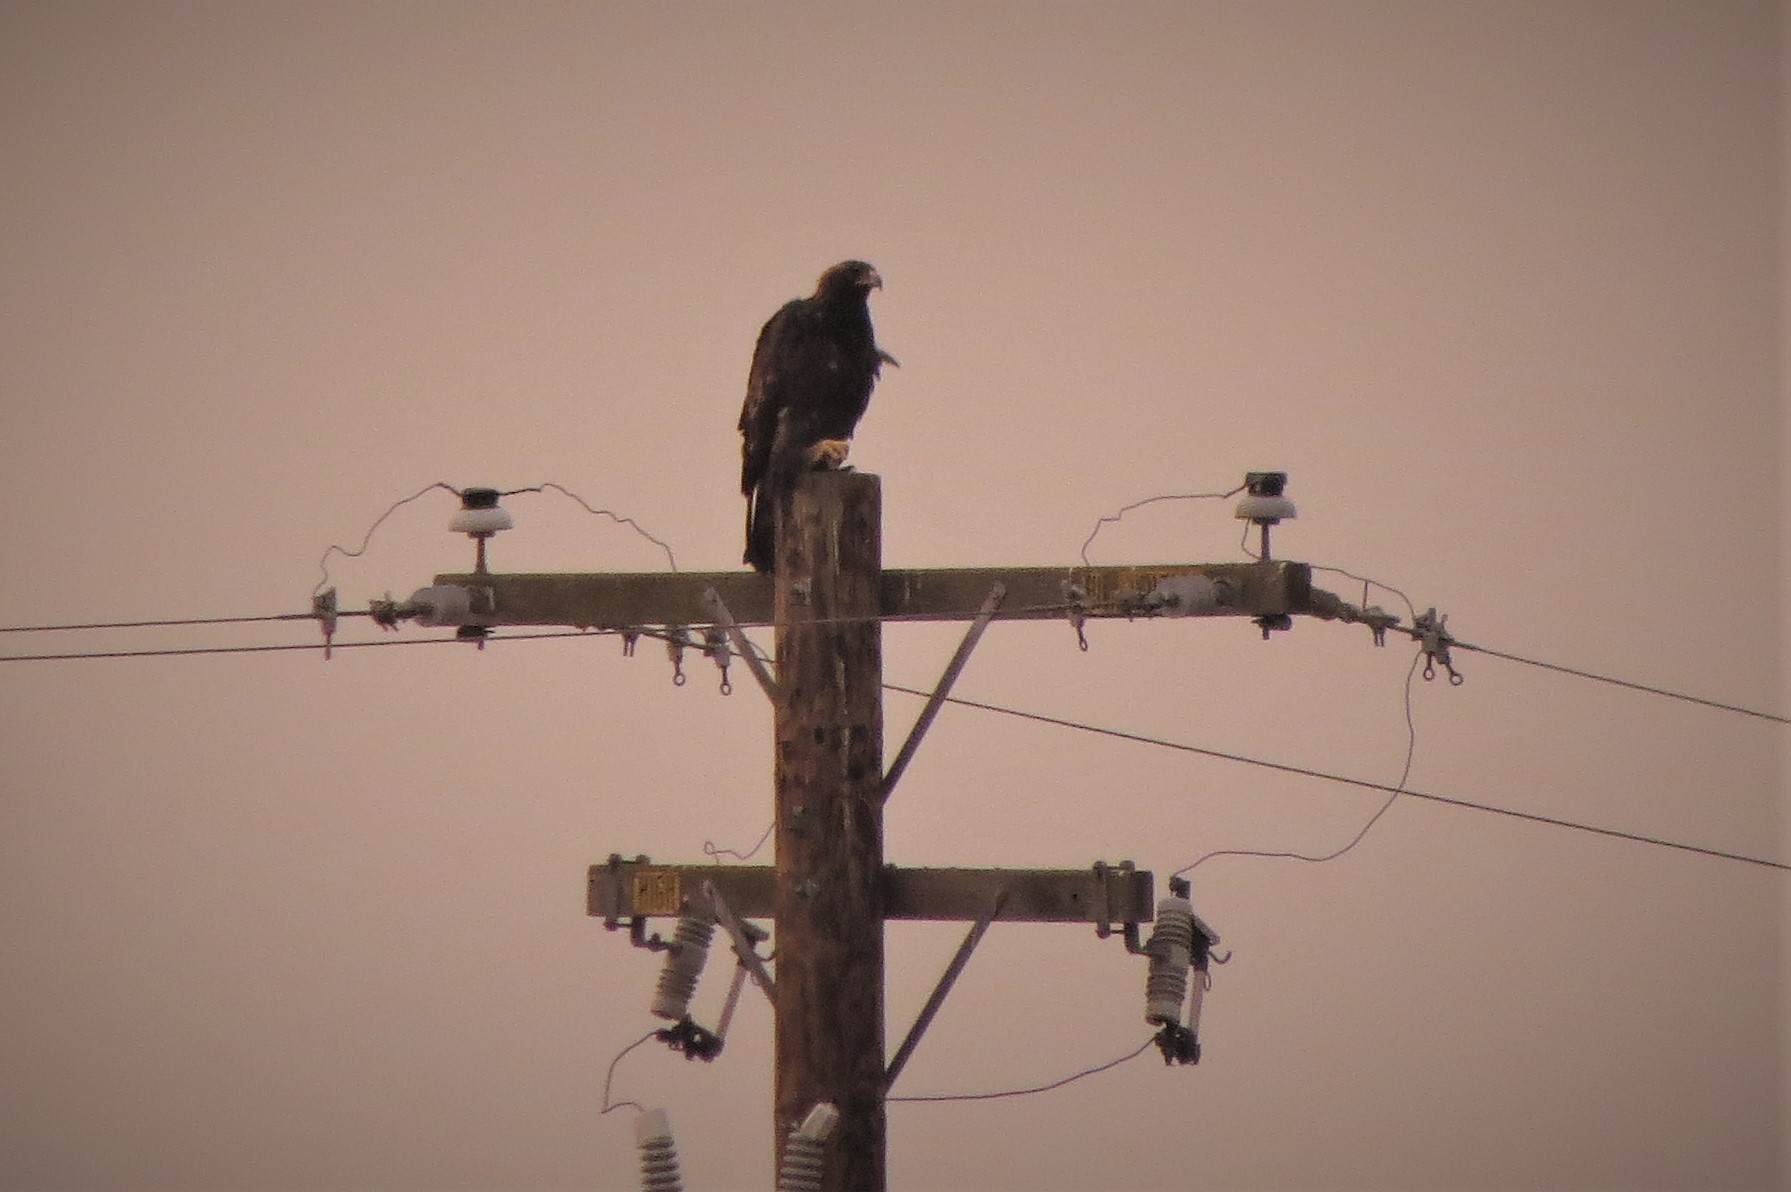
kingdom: Animalia
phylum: Chordata
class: Aves
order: Accipitriformes
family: Accipitridae
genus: Aquila
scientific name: Aquila chrysaetos
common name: Golden eagle
